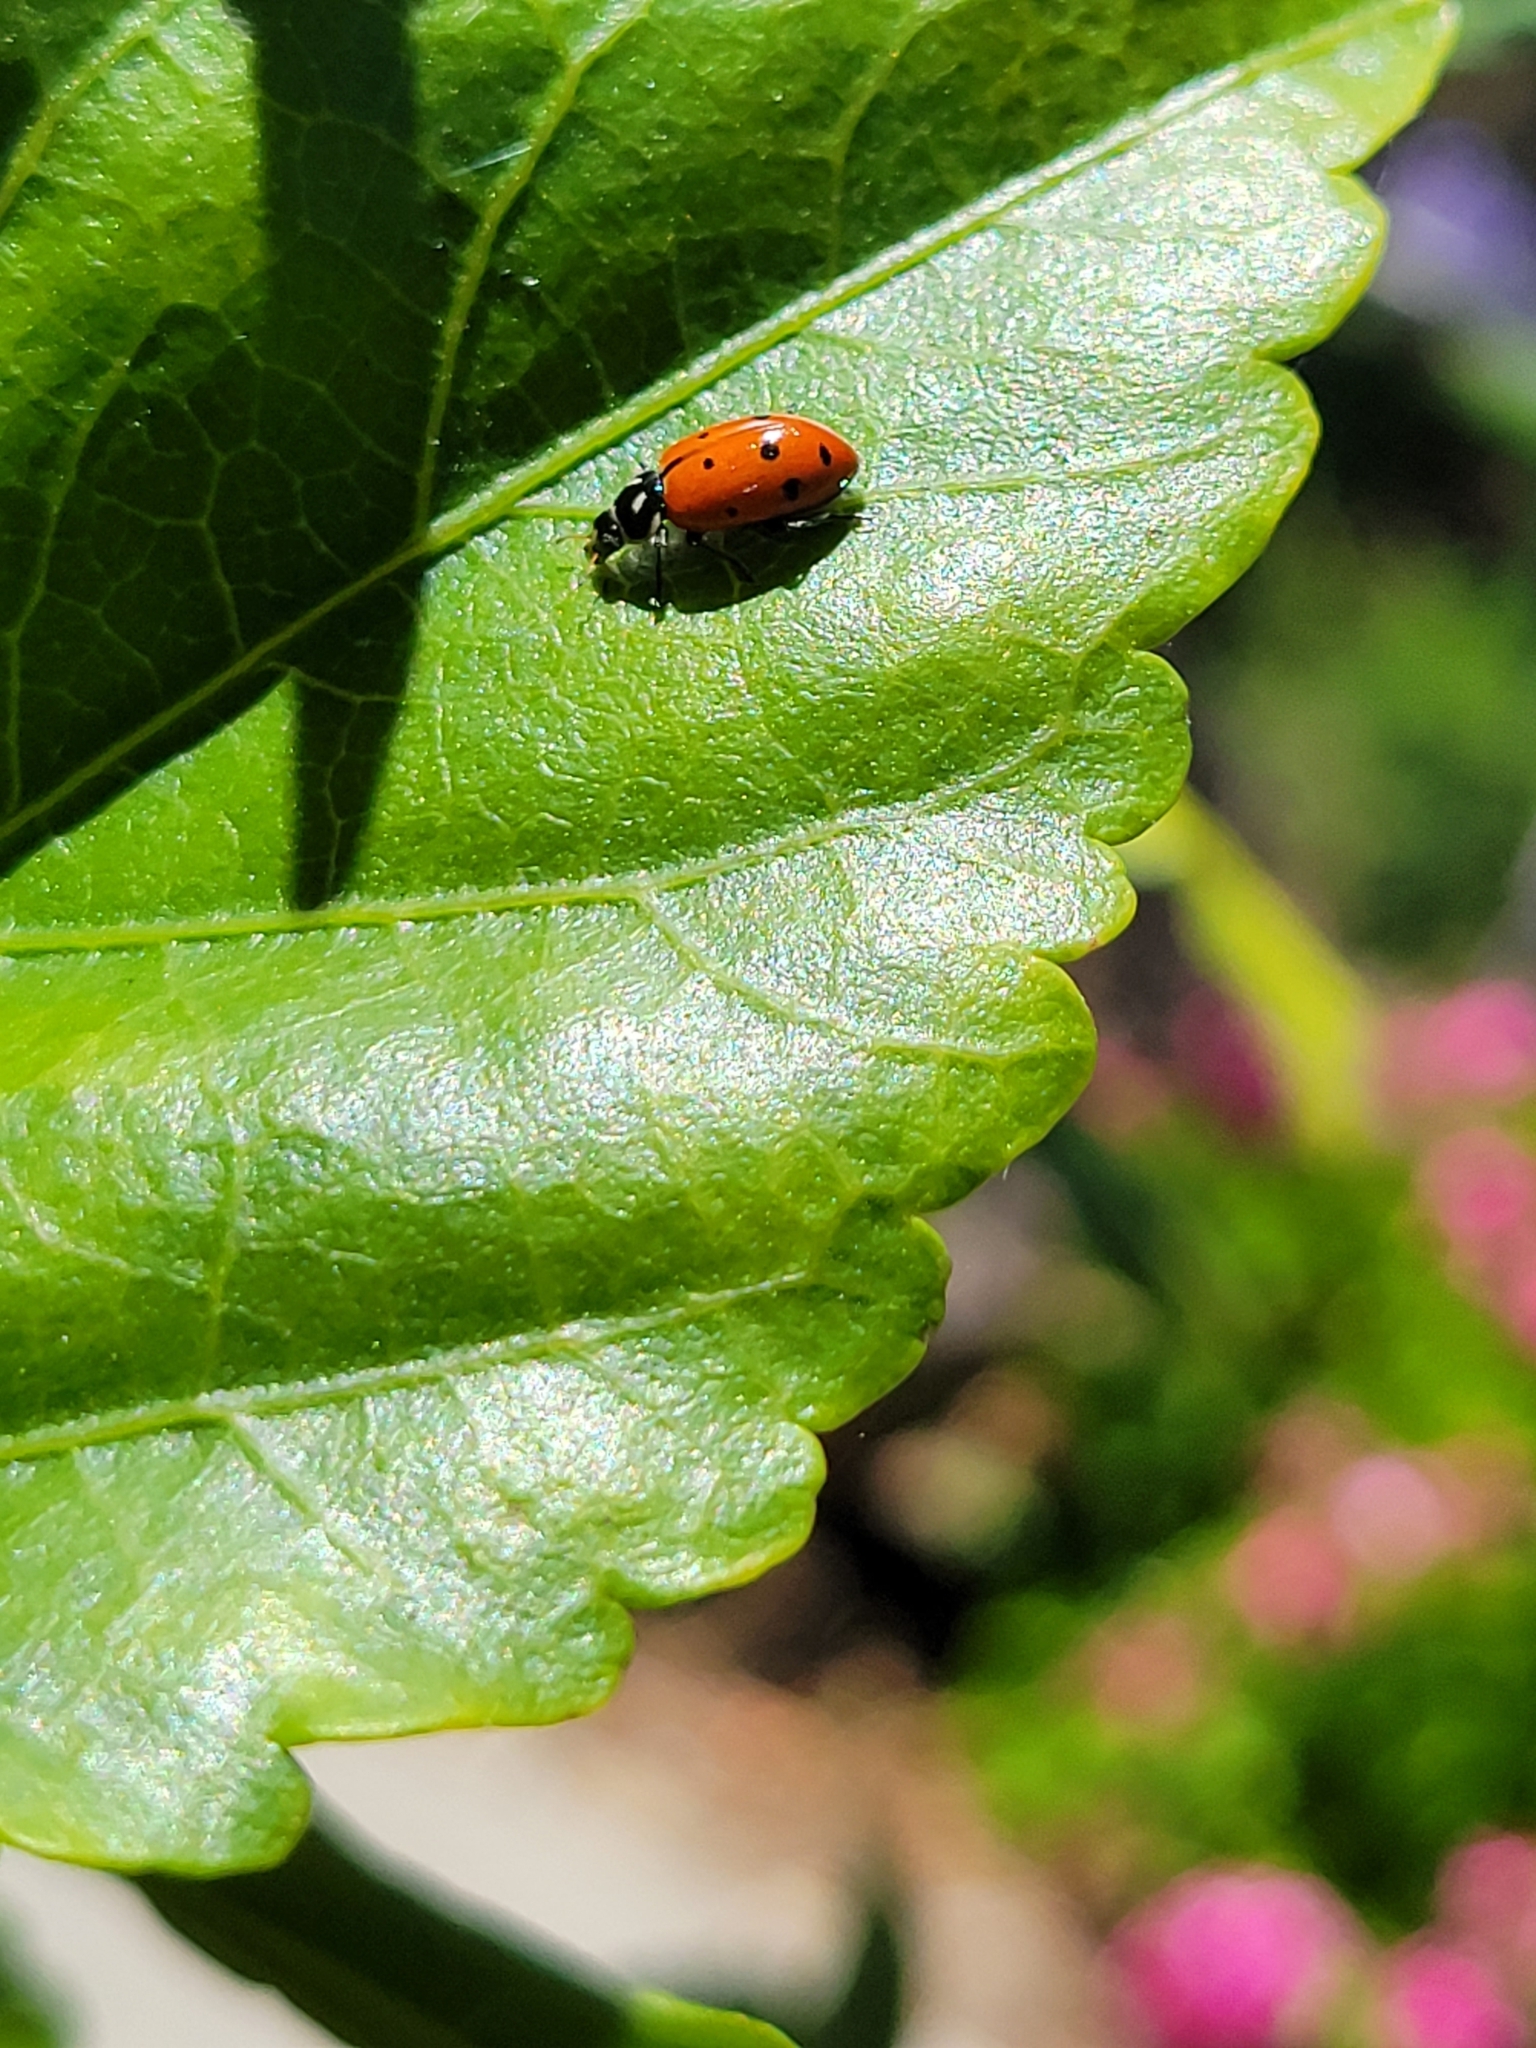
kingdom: Animalia
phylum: Arthropoda
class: Insecta
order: Coleoptera
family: Coccinellidae
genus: Hippodamia
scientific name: Hippodamia convergens
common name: Convergent lady beetle
